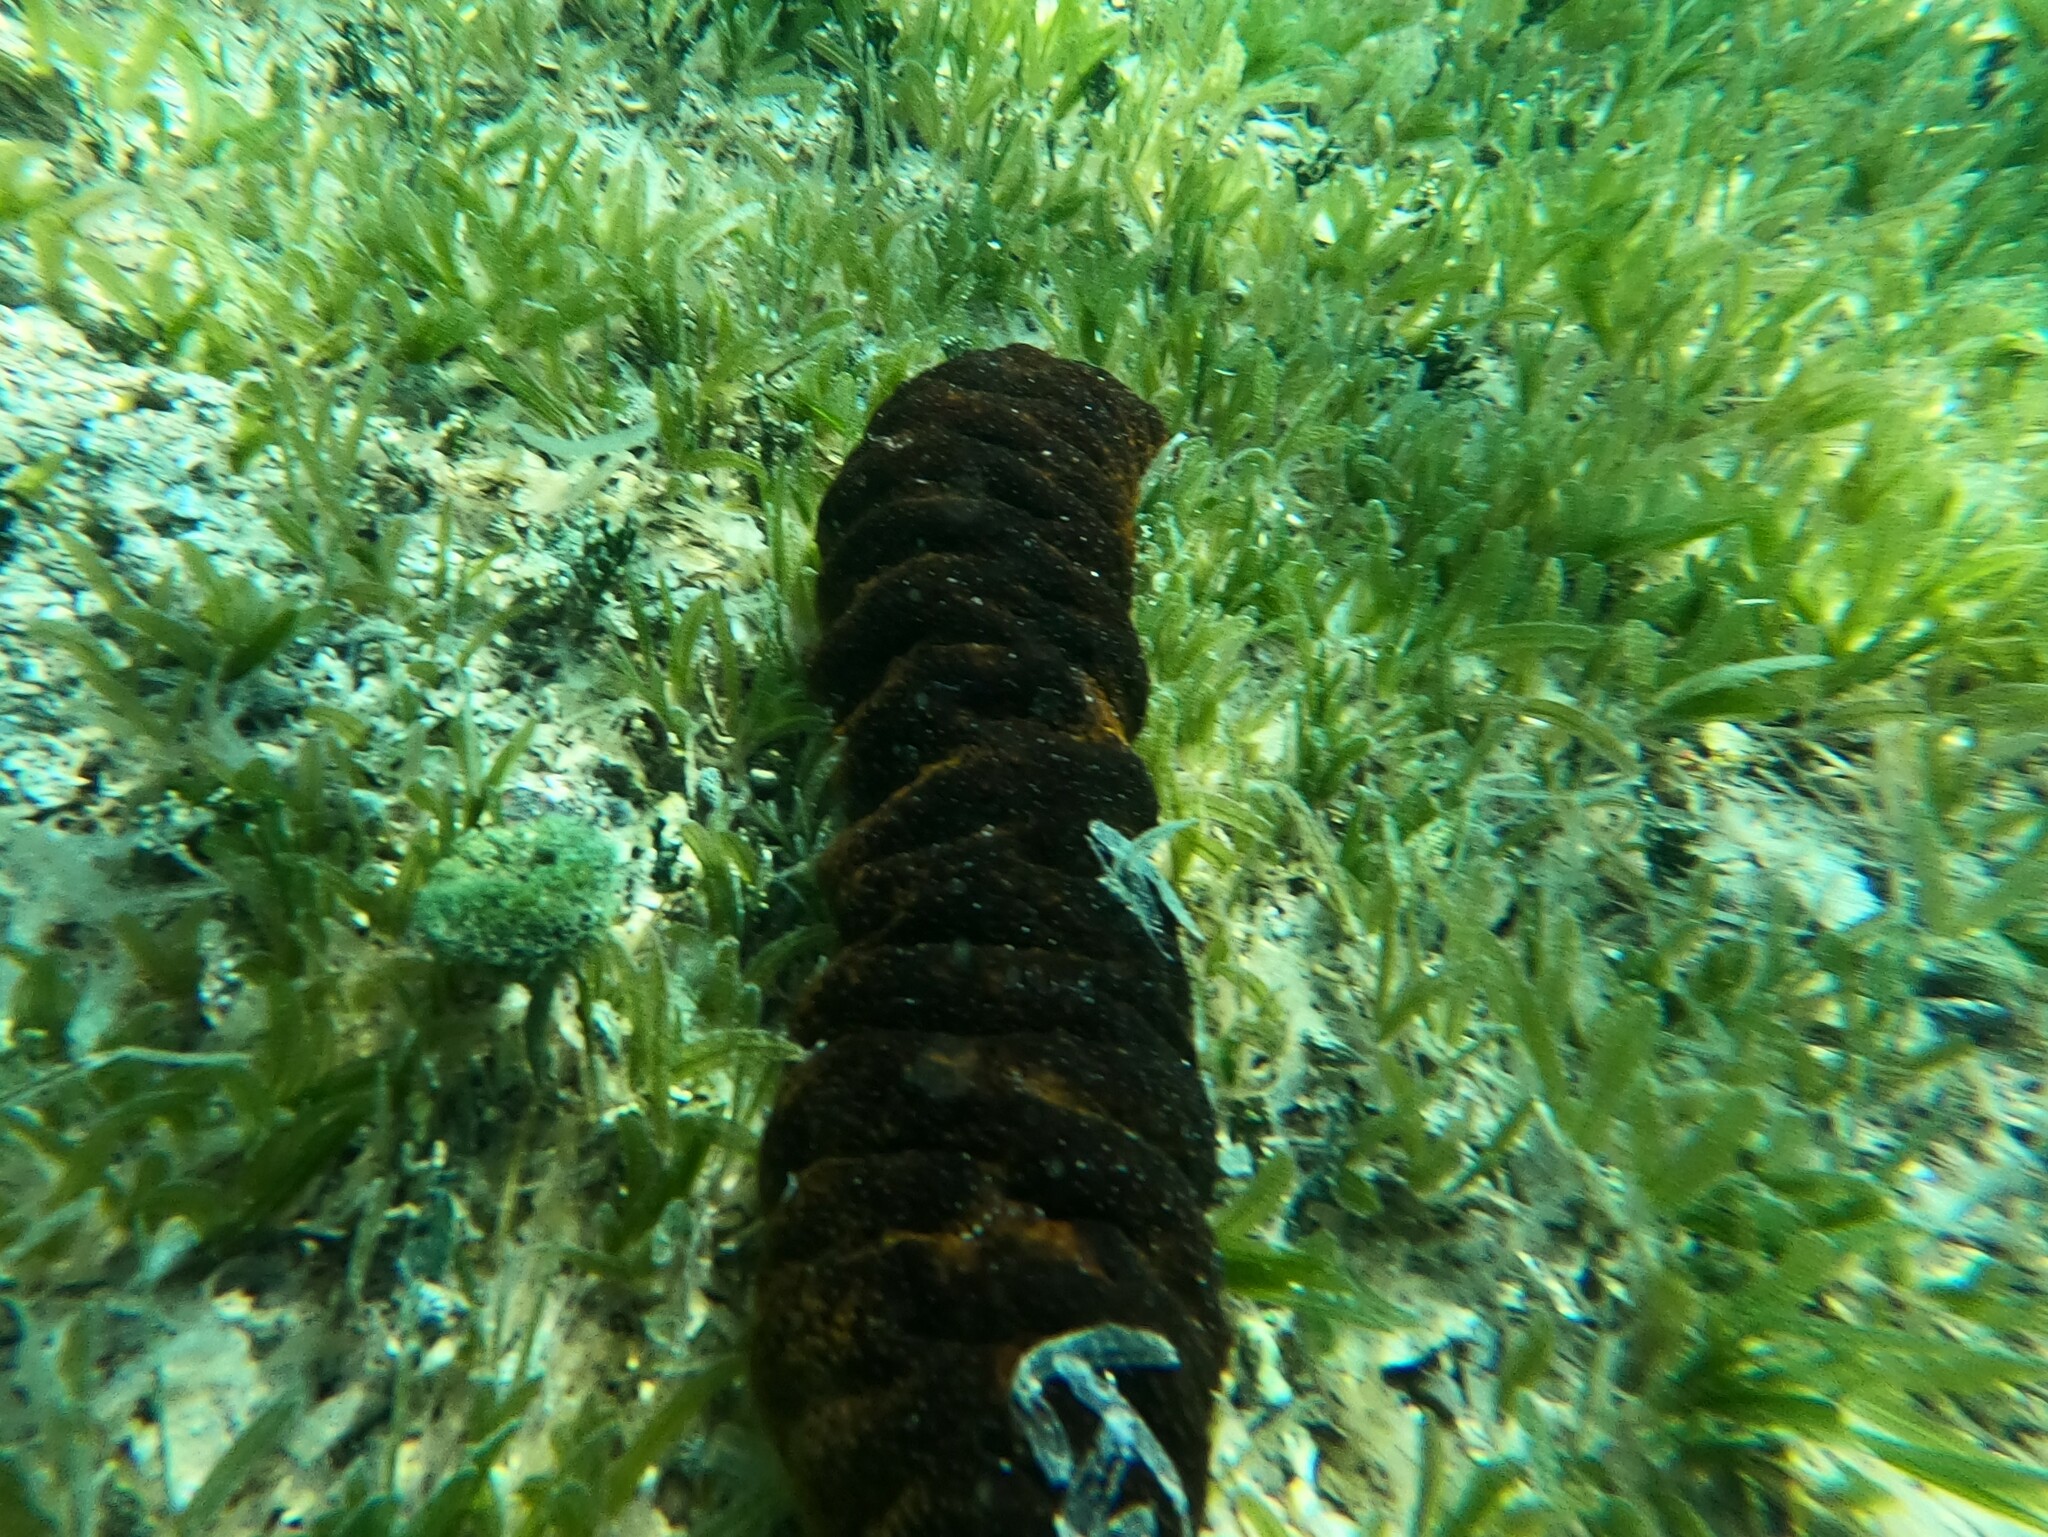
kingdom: Animalia
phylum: Echinodermata
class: Holothuroidea
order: Holothuriida
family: Holothuriidae
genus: Holothuria
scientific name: Holothuria mexicana
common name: Donkey dung sea cucumber
